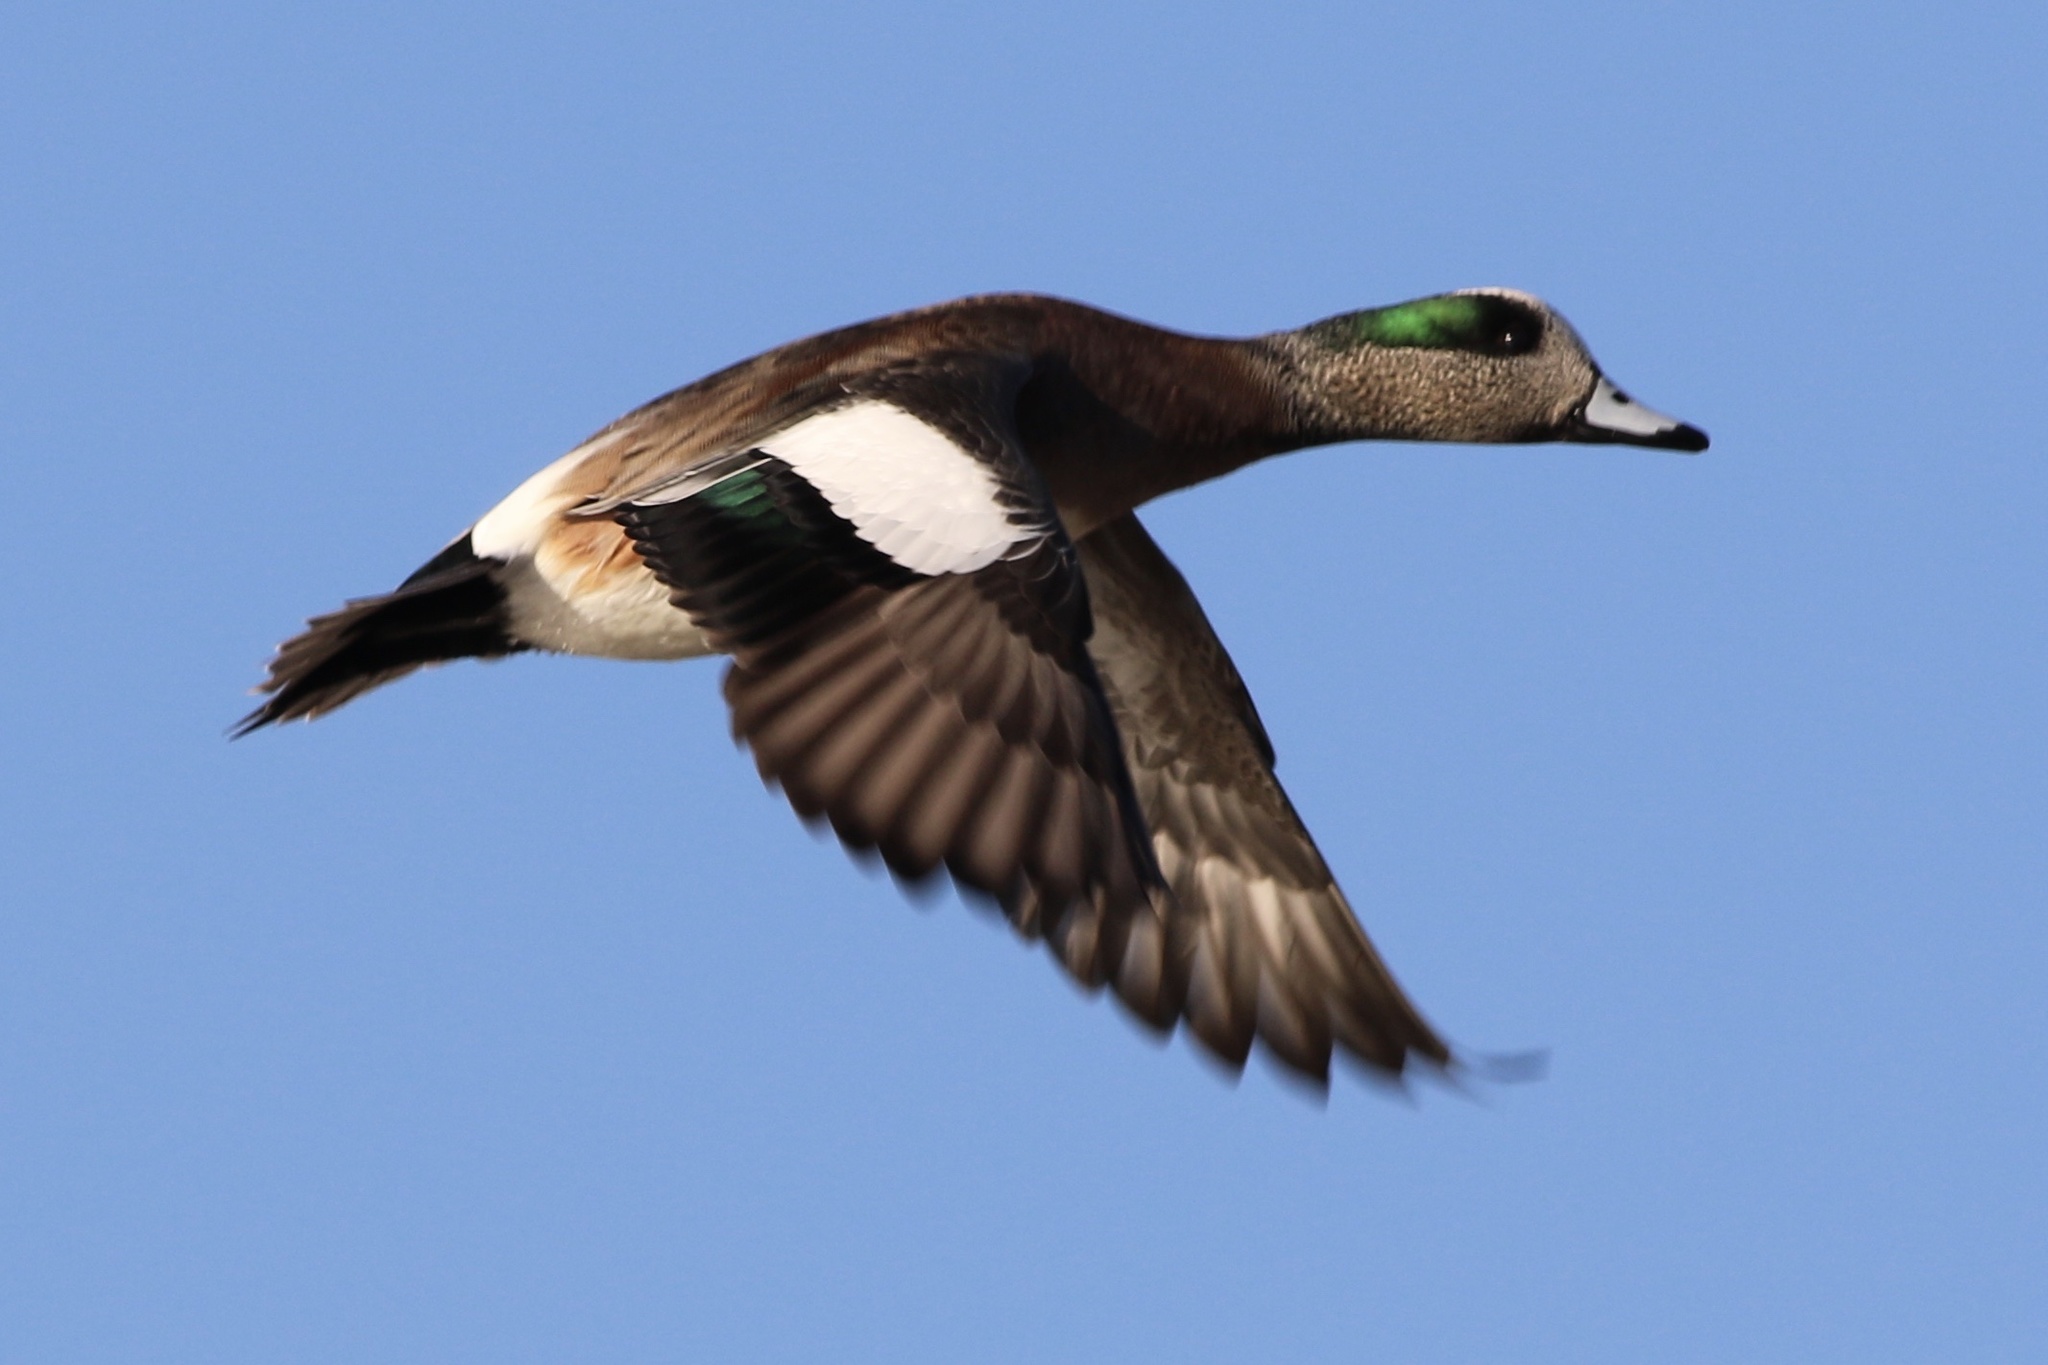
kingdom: Animalia
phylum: Chordata
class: Aves
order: Anseriformes
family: Anatidae
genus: Mareca
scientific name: Mareca americana
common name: American wigeon
